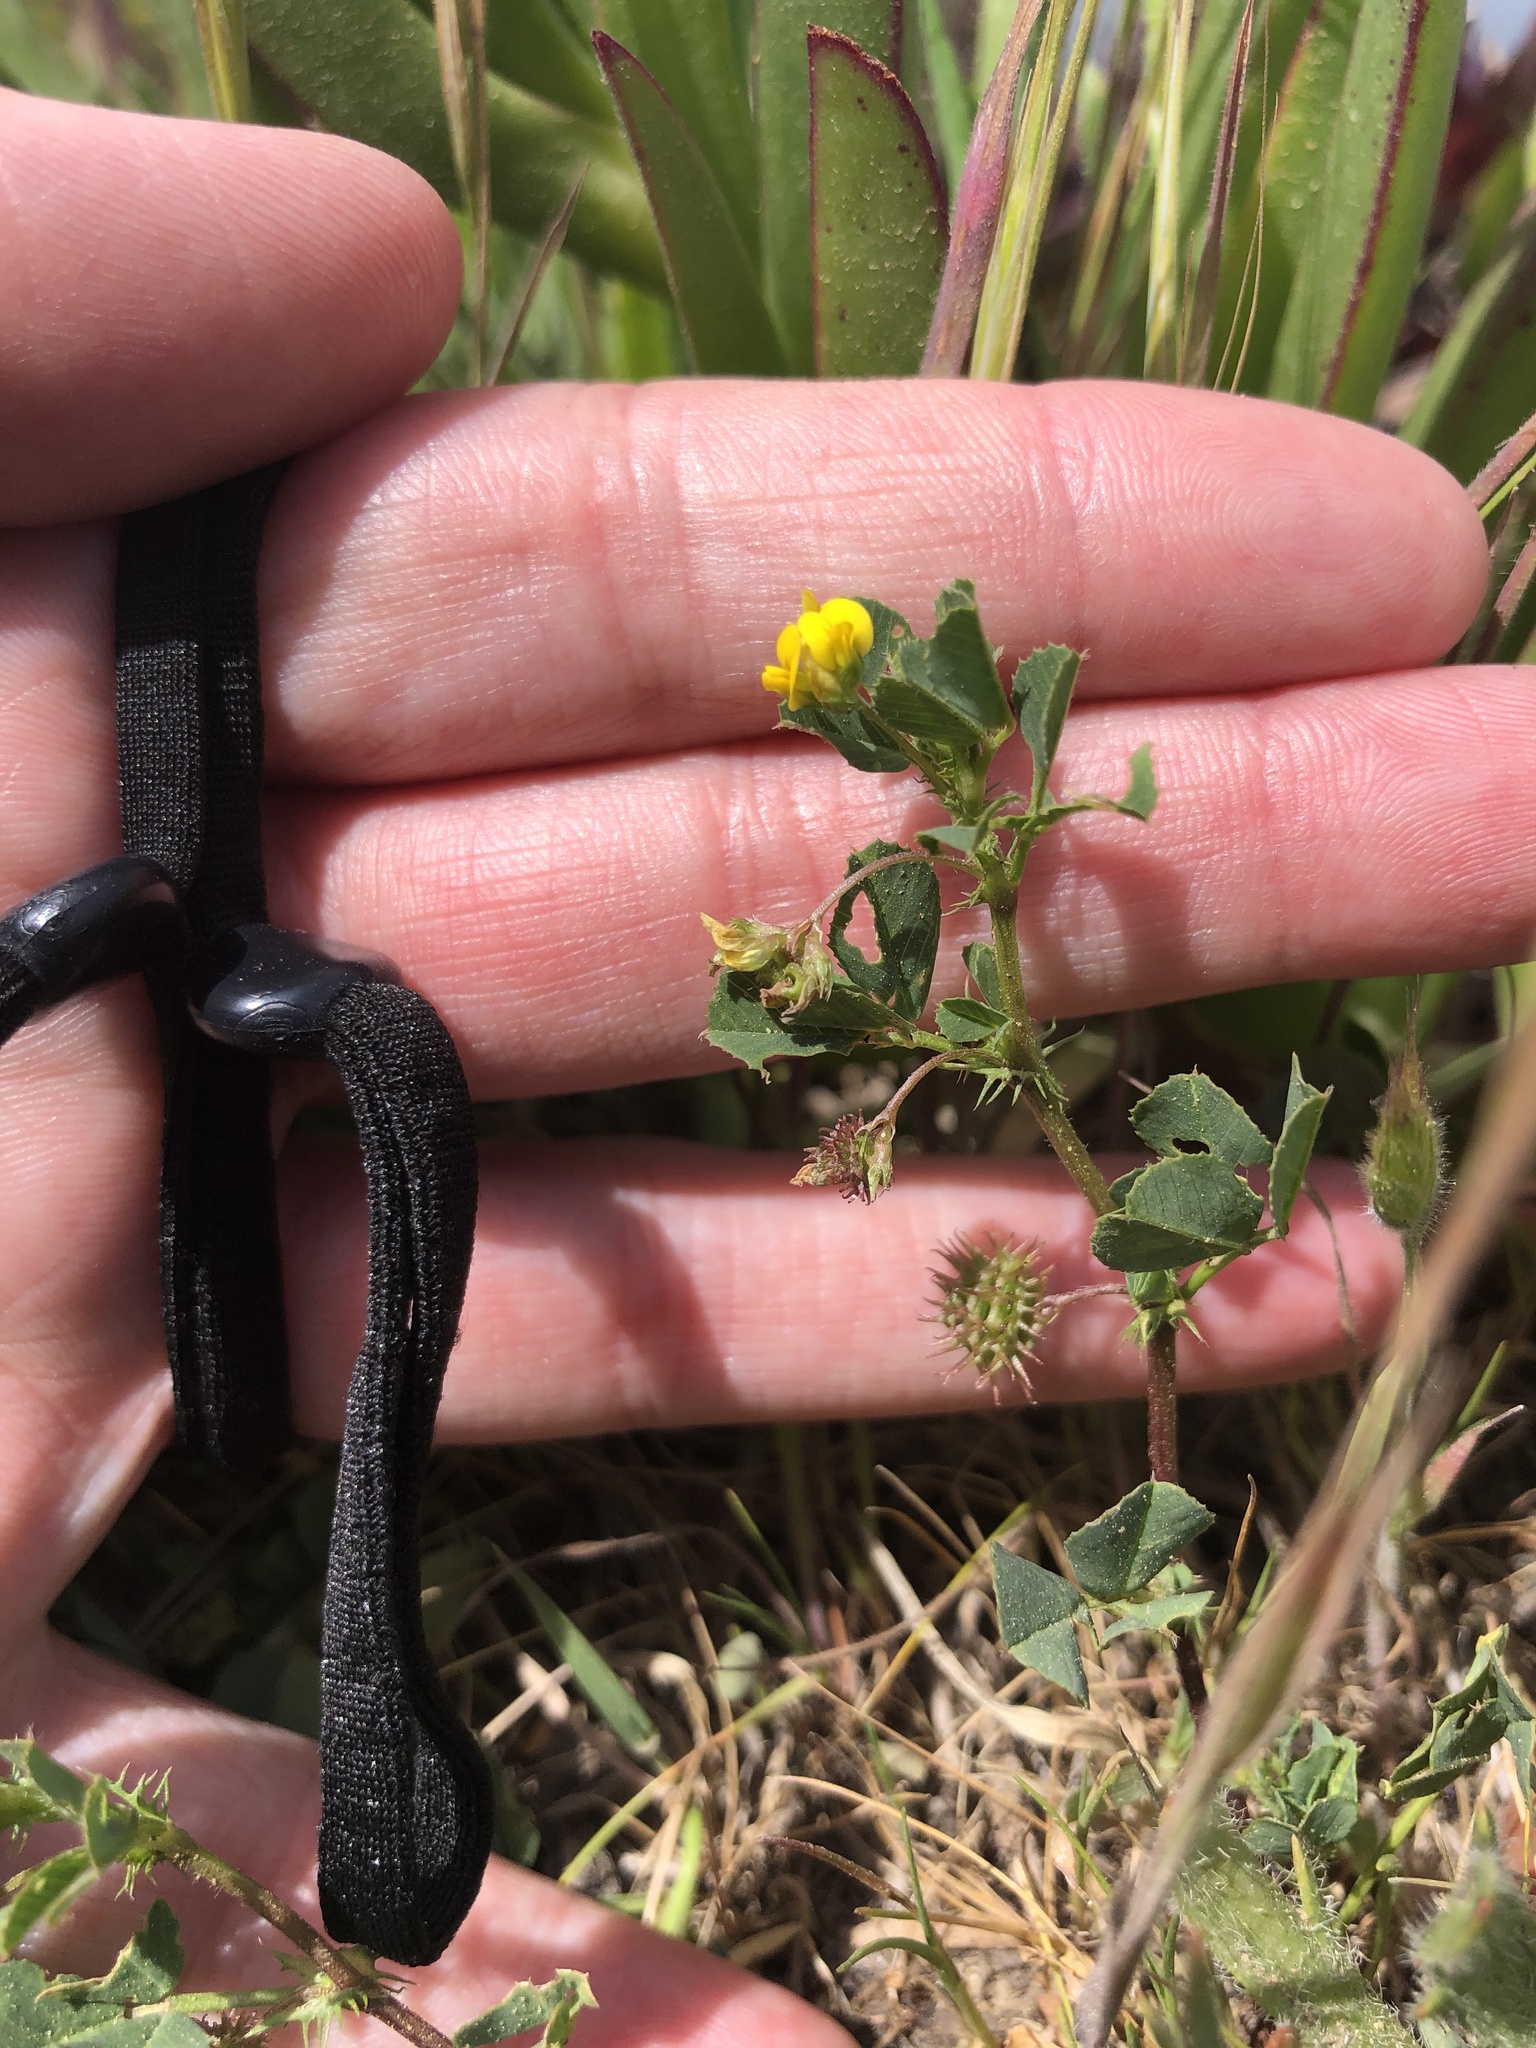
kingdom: Plantae
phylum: Tracheophyta
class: Magnoliopsida
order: Fabales
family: Fabaceae
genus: Medicago
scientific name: Medicago polymorpha
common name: Burclover
